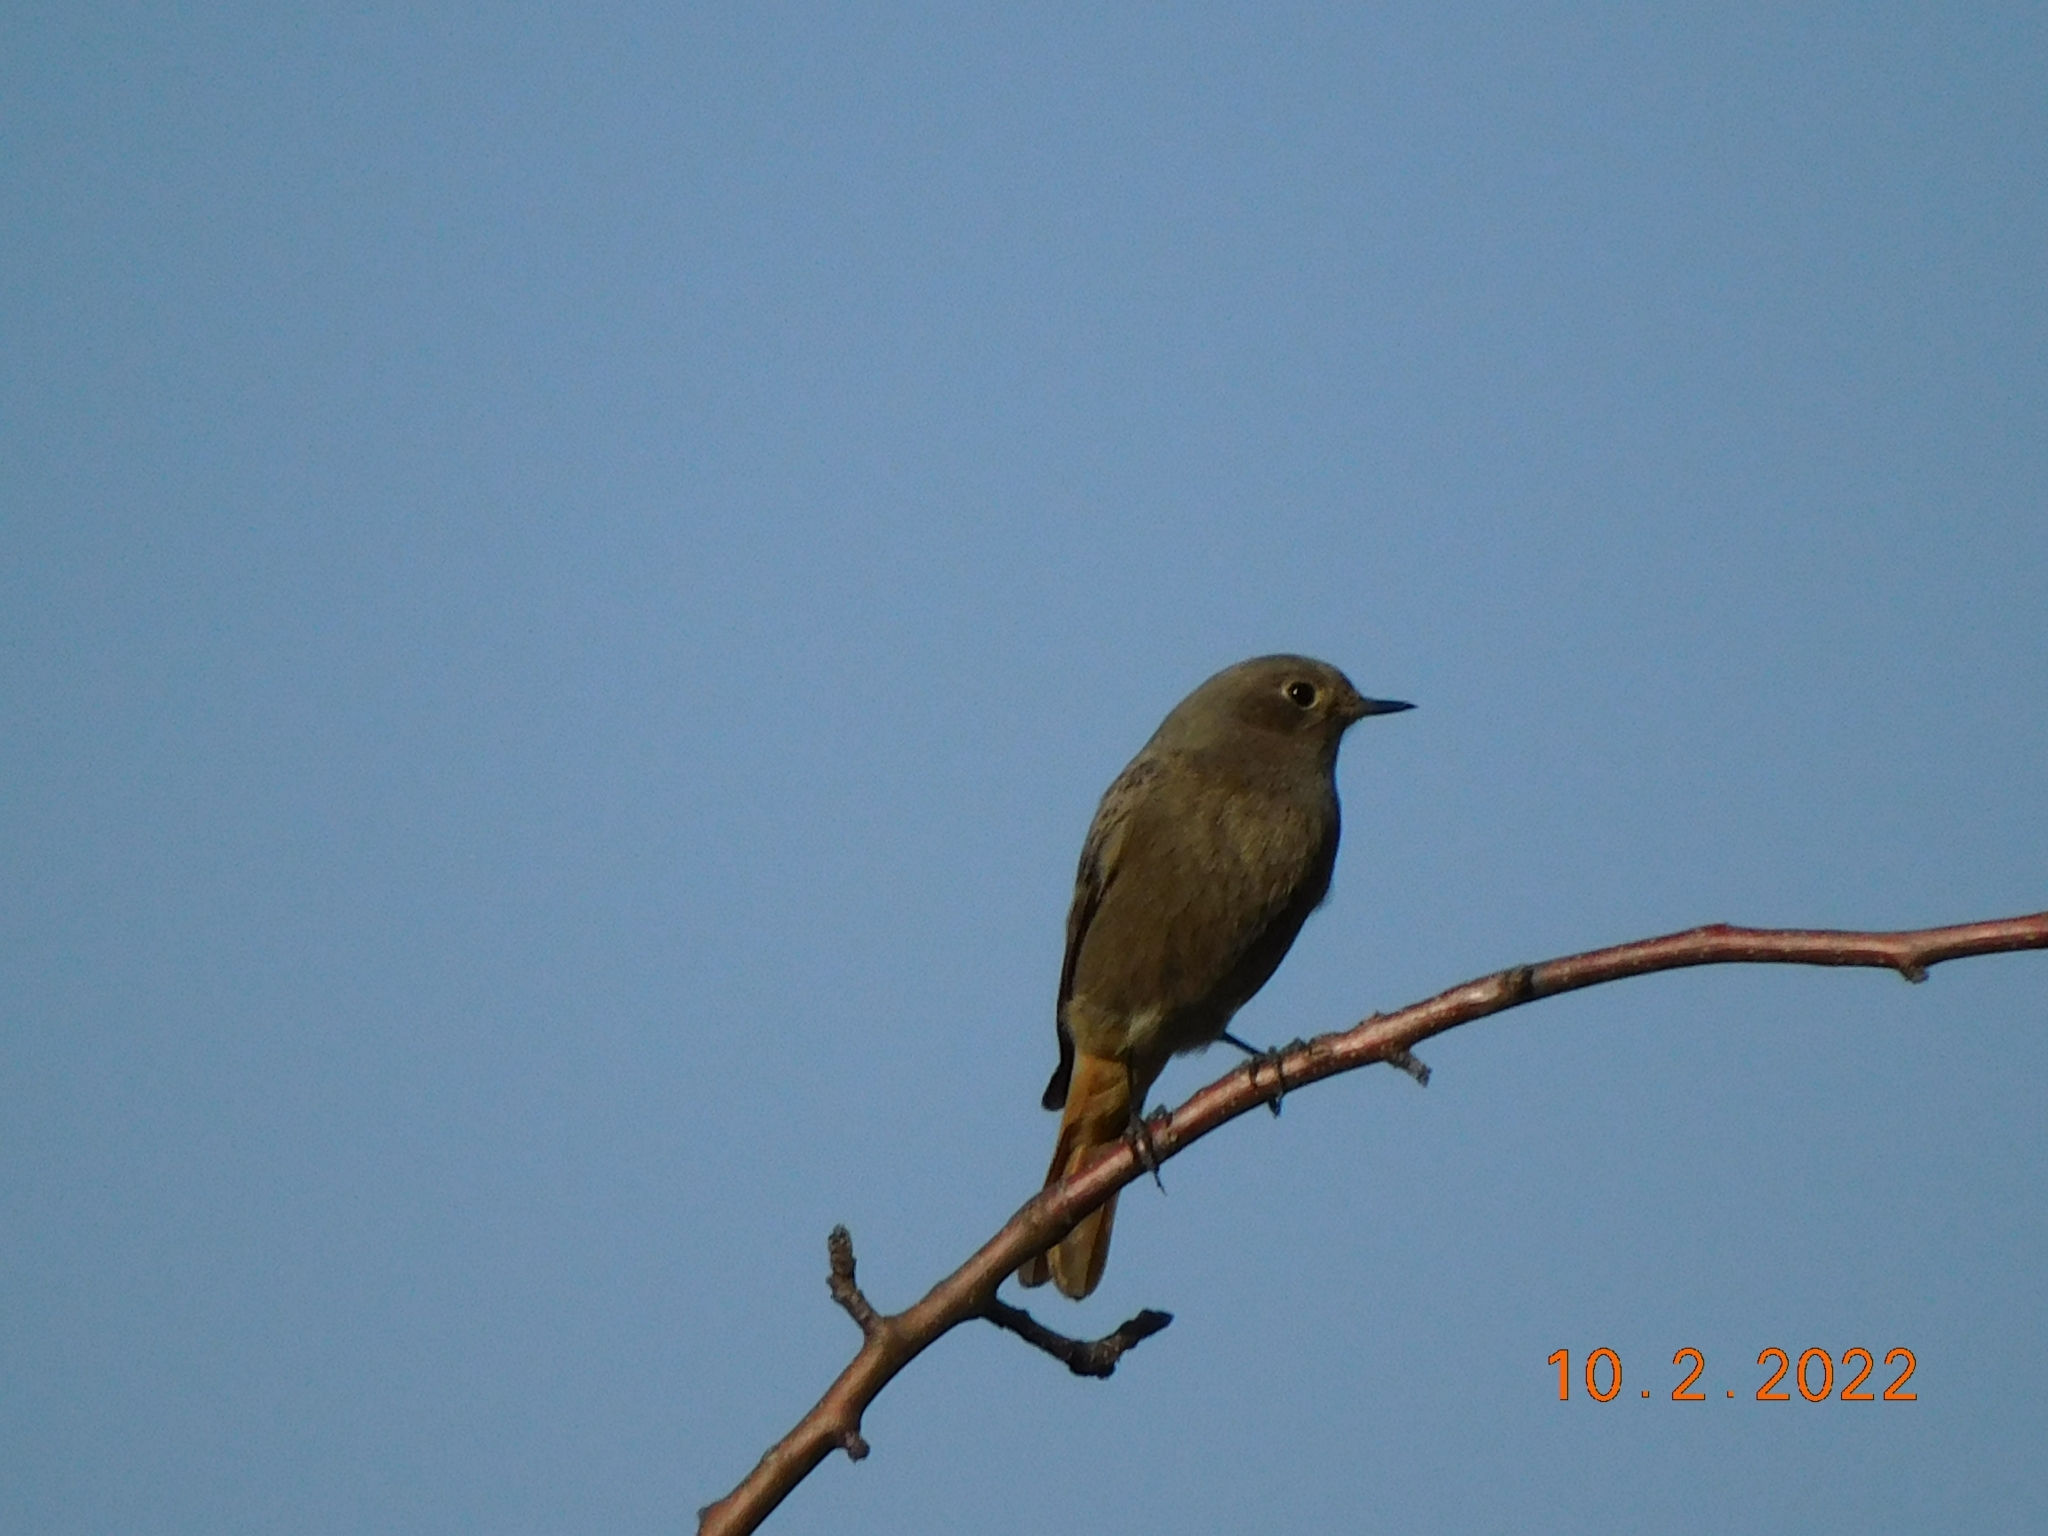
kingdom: Animalia
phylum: Chordata
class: Aves
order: Passeriformes
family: Muscicapidae
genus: Phoenicurus
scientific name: Phoenicurus ochruros
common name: Black redstart
